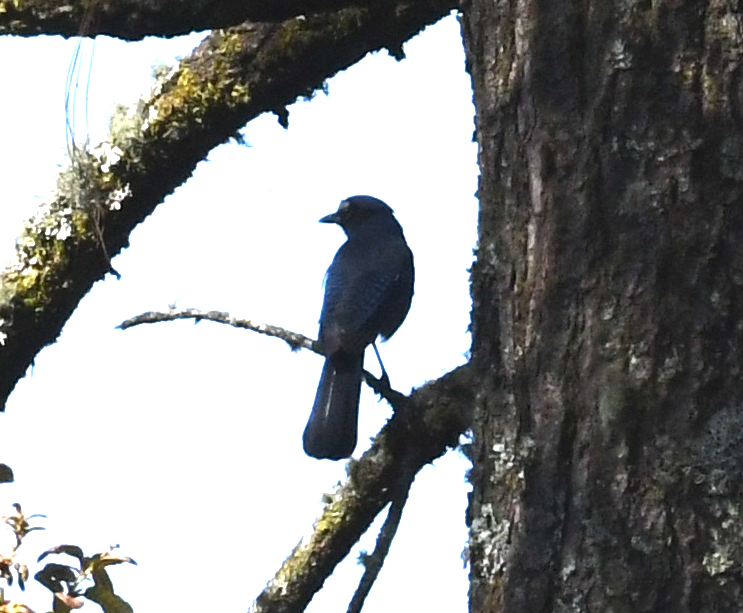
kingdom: Animalia
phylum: Chordata
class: Aves
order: Passeriformes
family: Corvidae
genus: Cyanocitta
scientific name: Cyanocitta stelleri
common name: Steller's jay
